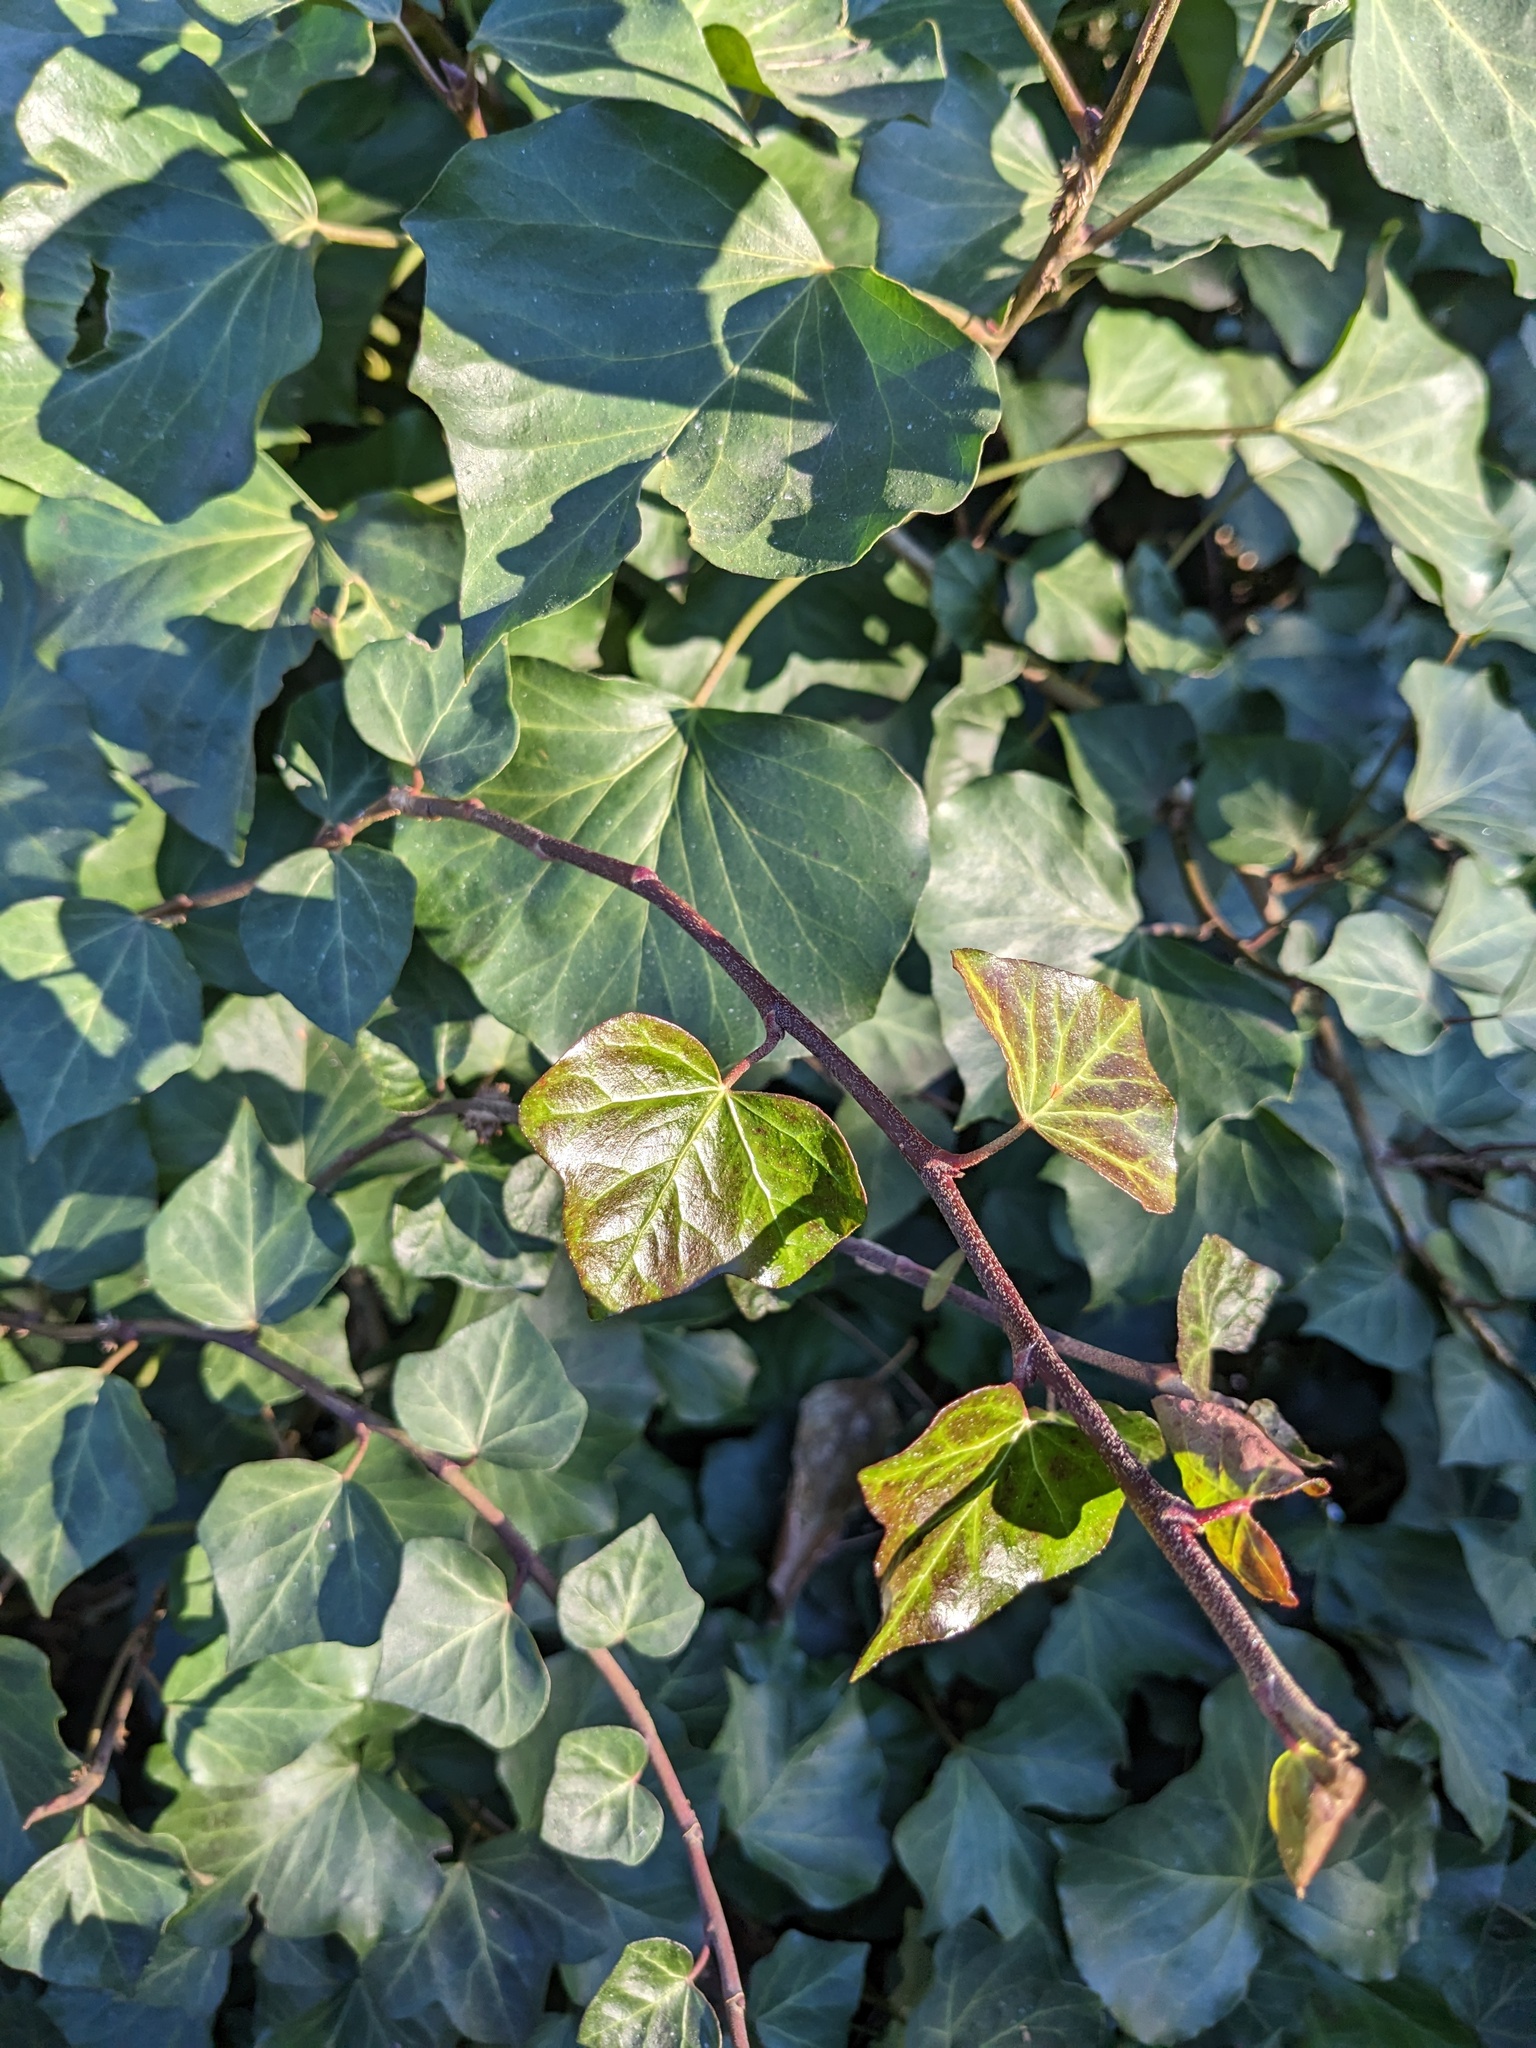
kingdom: Plantae
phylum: Tracheophyta
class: Magnoliopsida
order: Apiales
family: Araliaceae
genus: Hedera
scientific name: Hedera helix
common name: Ivy
